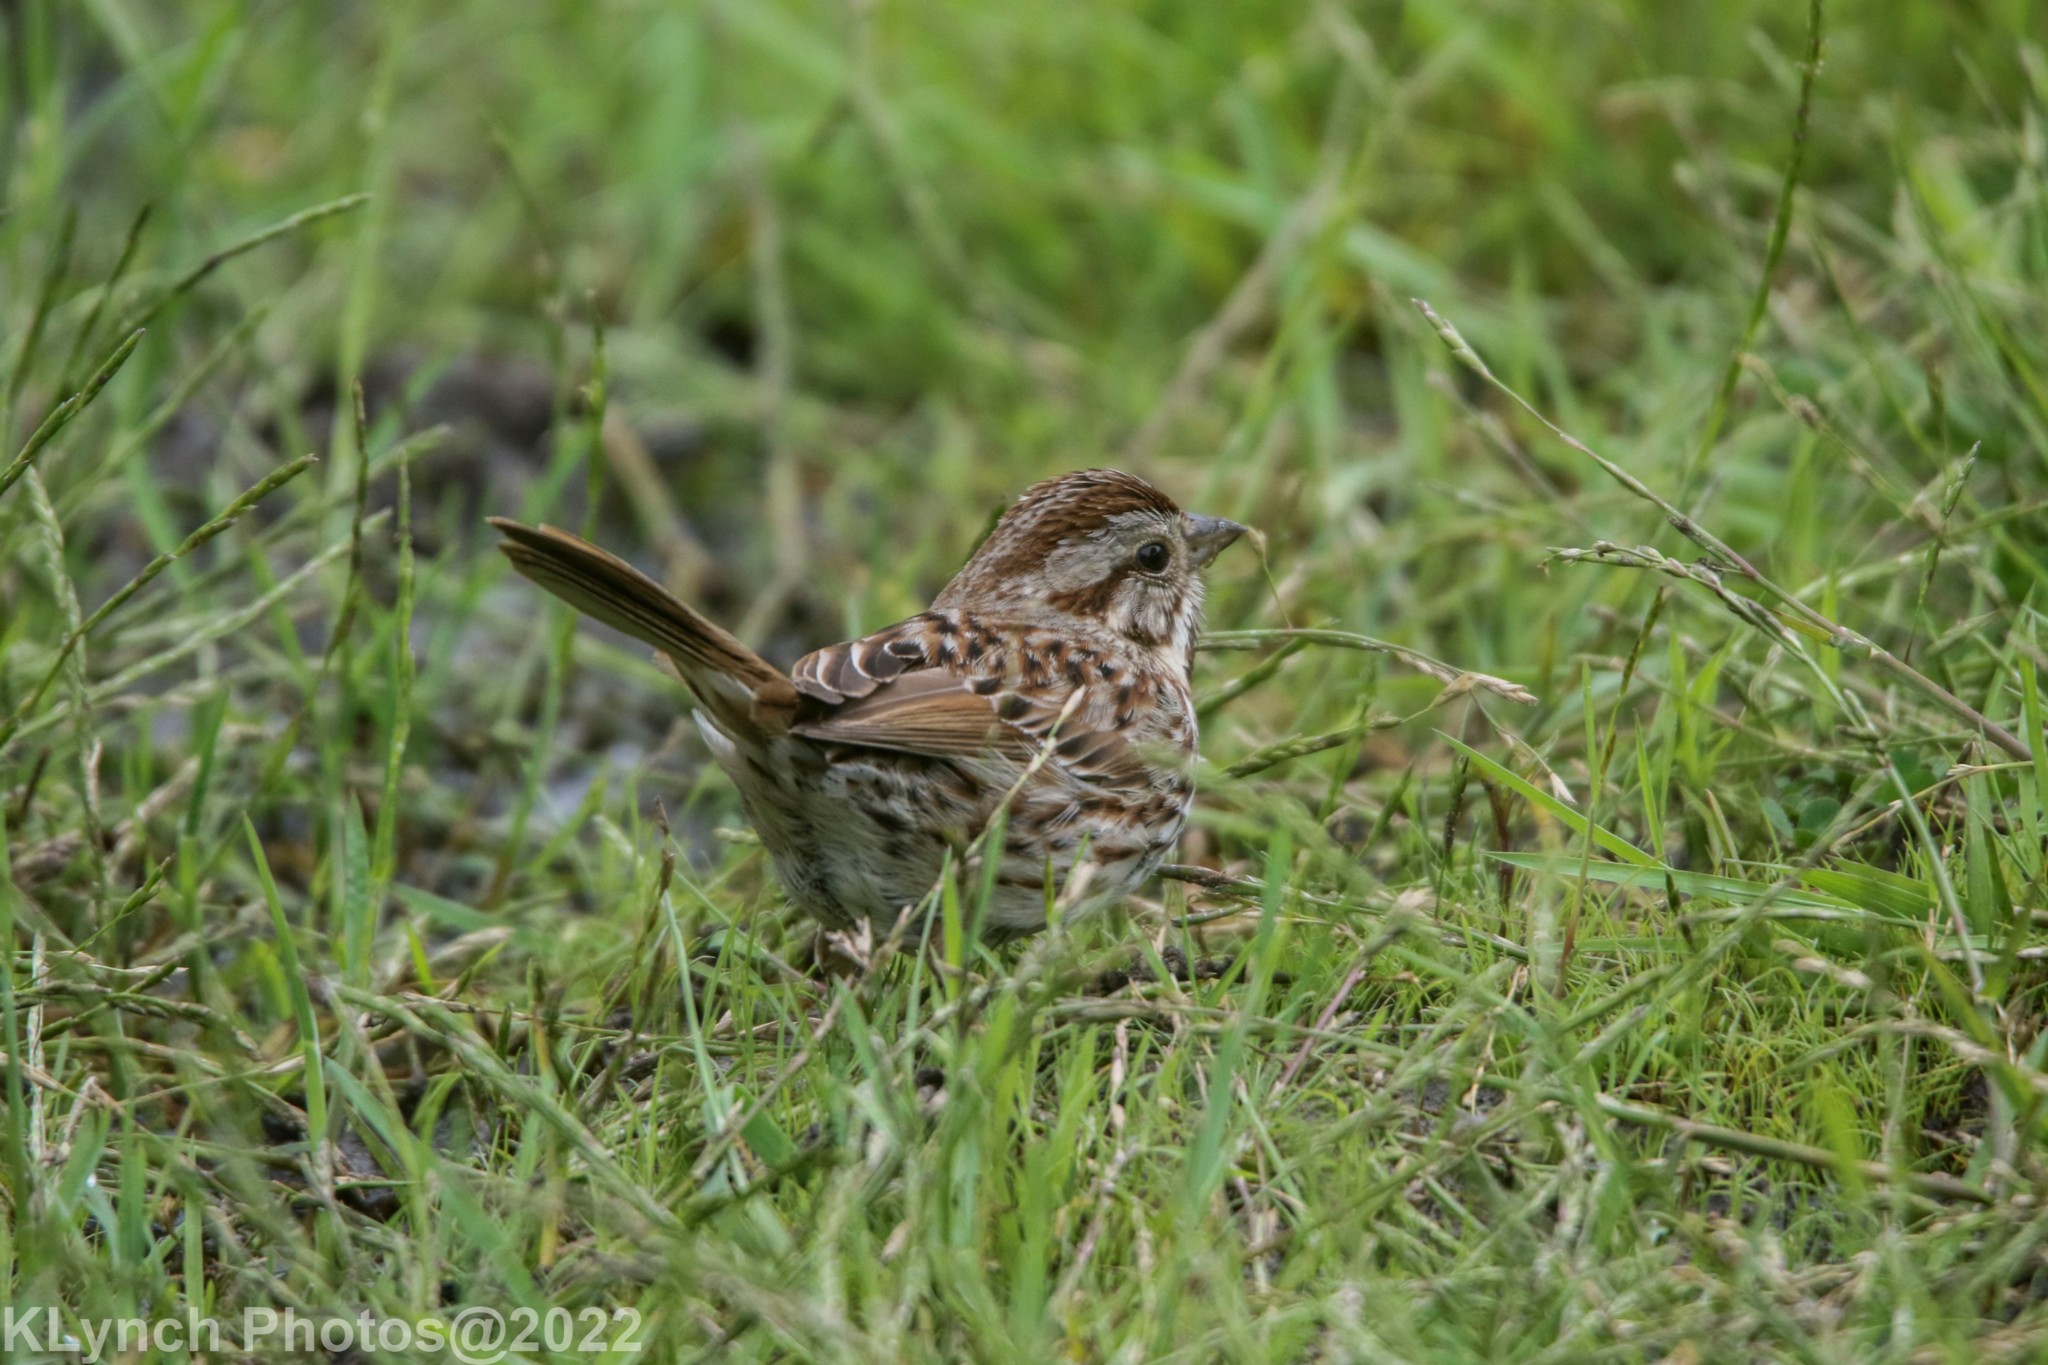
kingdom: Animalia
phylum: Chordata
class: Aves
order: Passeriformes
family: Passerellidae
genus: Melospiza
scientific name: Melospiza melodia
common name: Song sparrow
